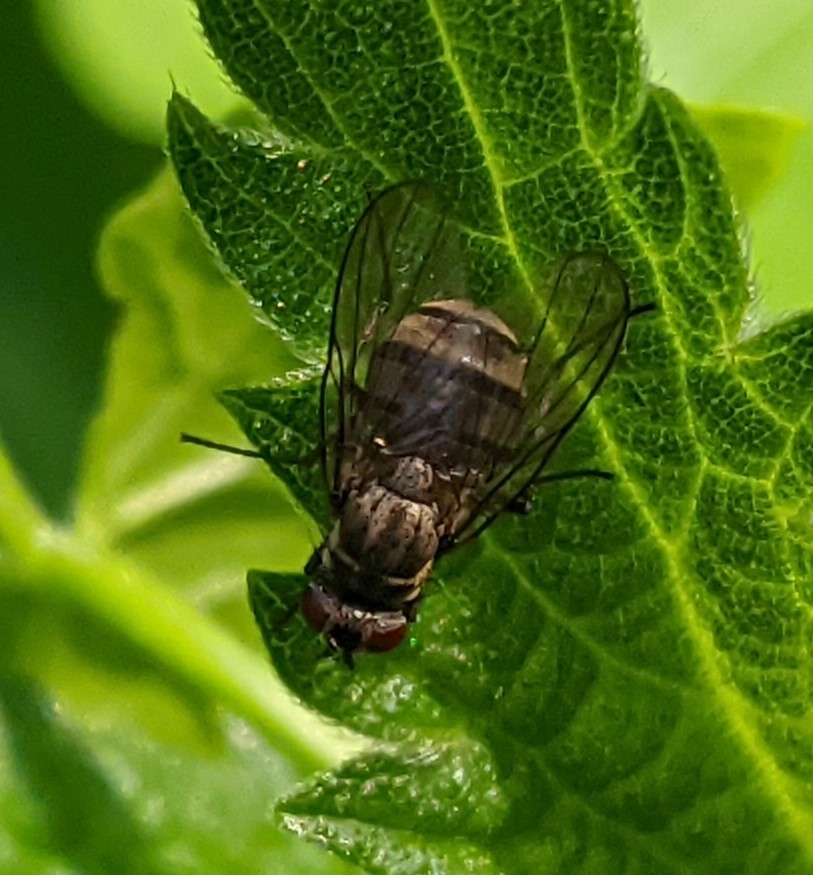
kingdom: Animalia
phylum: Arthropoda
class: Insecta
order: Diptera
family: Muscidae
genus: Limnophora
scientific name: Limnophora triangula
